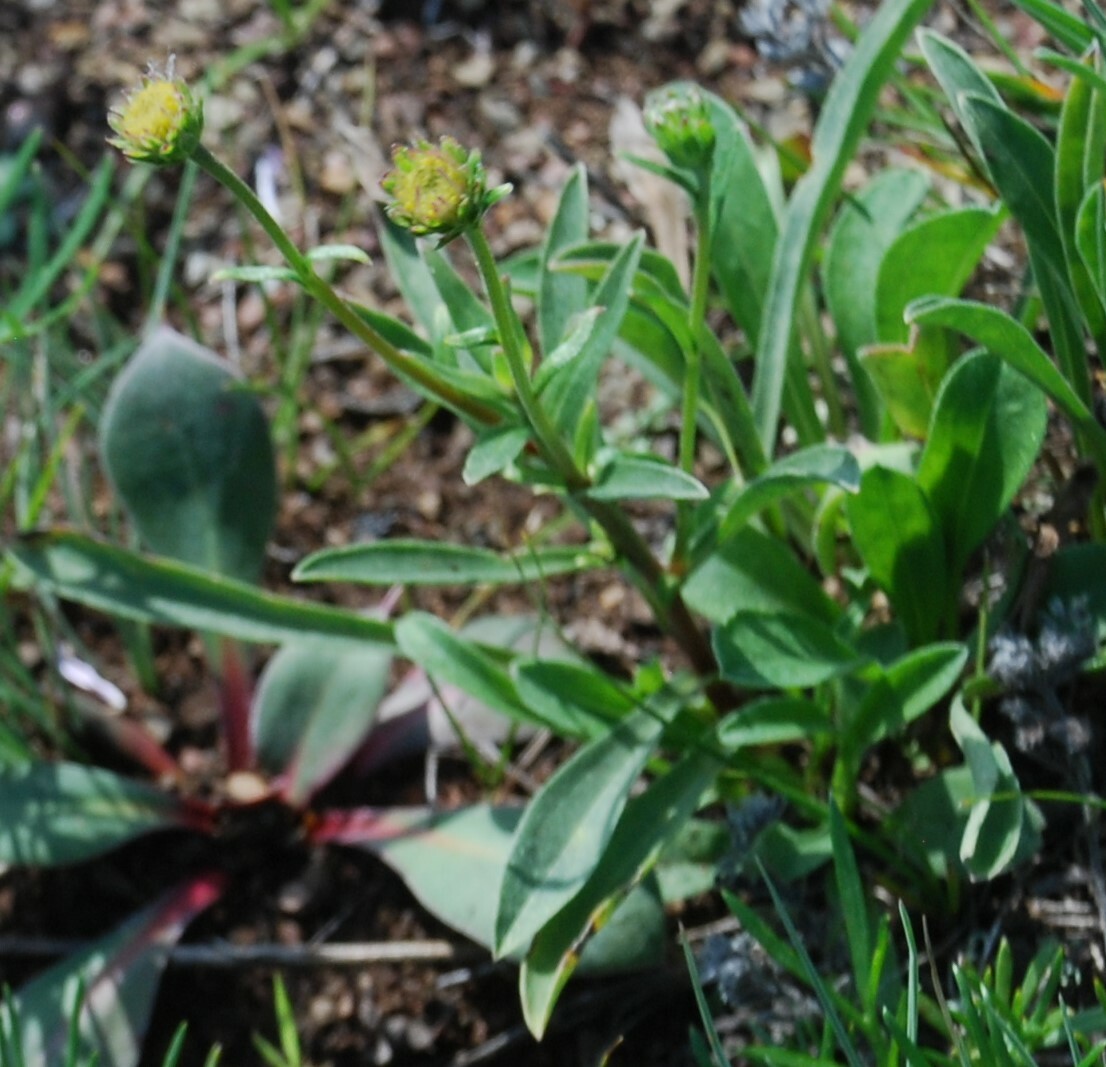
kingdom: Plantae
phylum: Tracheophyta
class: Magnoliopsida
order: Asterales
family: Asteraceae
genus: Aster
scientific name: Aster alpinus
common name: Alpine aster
